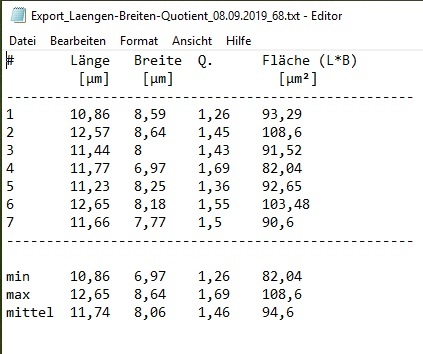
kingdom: Fungi
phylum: Basidiomycota
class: Agaricomycetes
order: Agaricales
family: Entolomataceae
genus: Entoloma
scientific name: Entoloma formosum
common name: Pretty pinkgill
